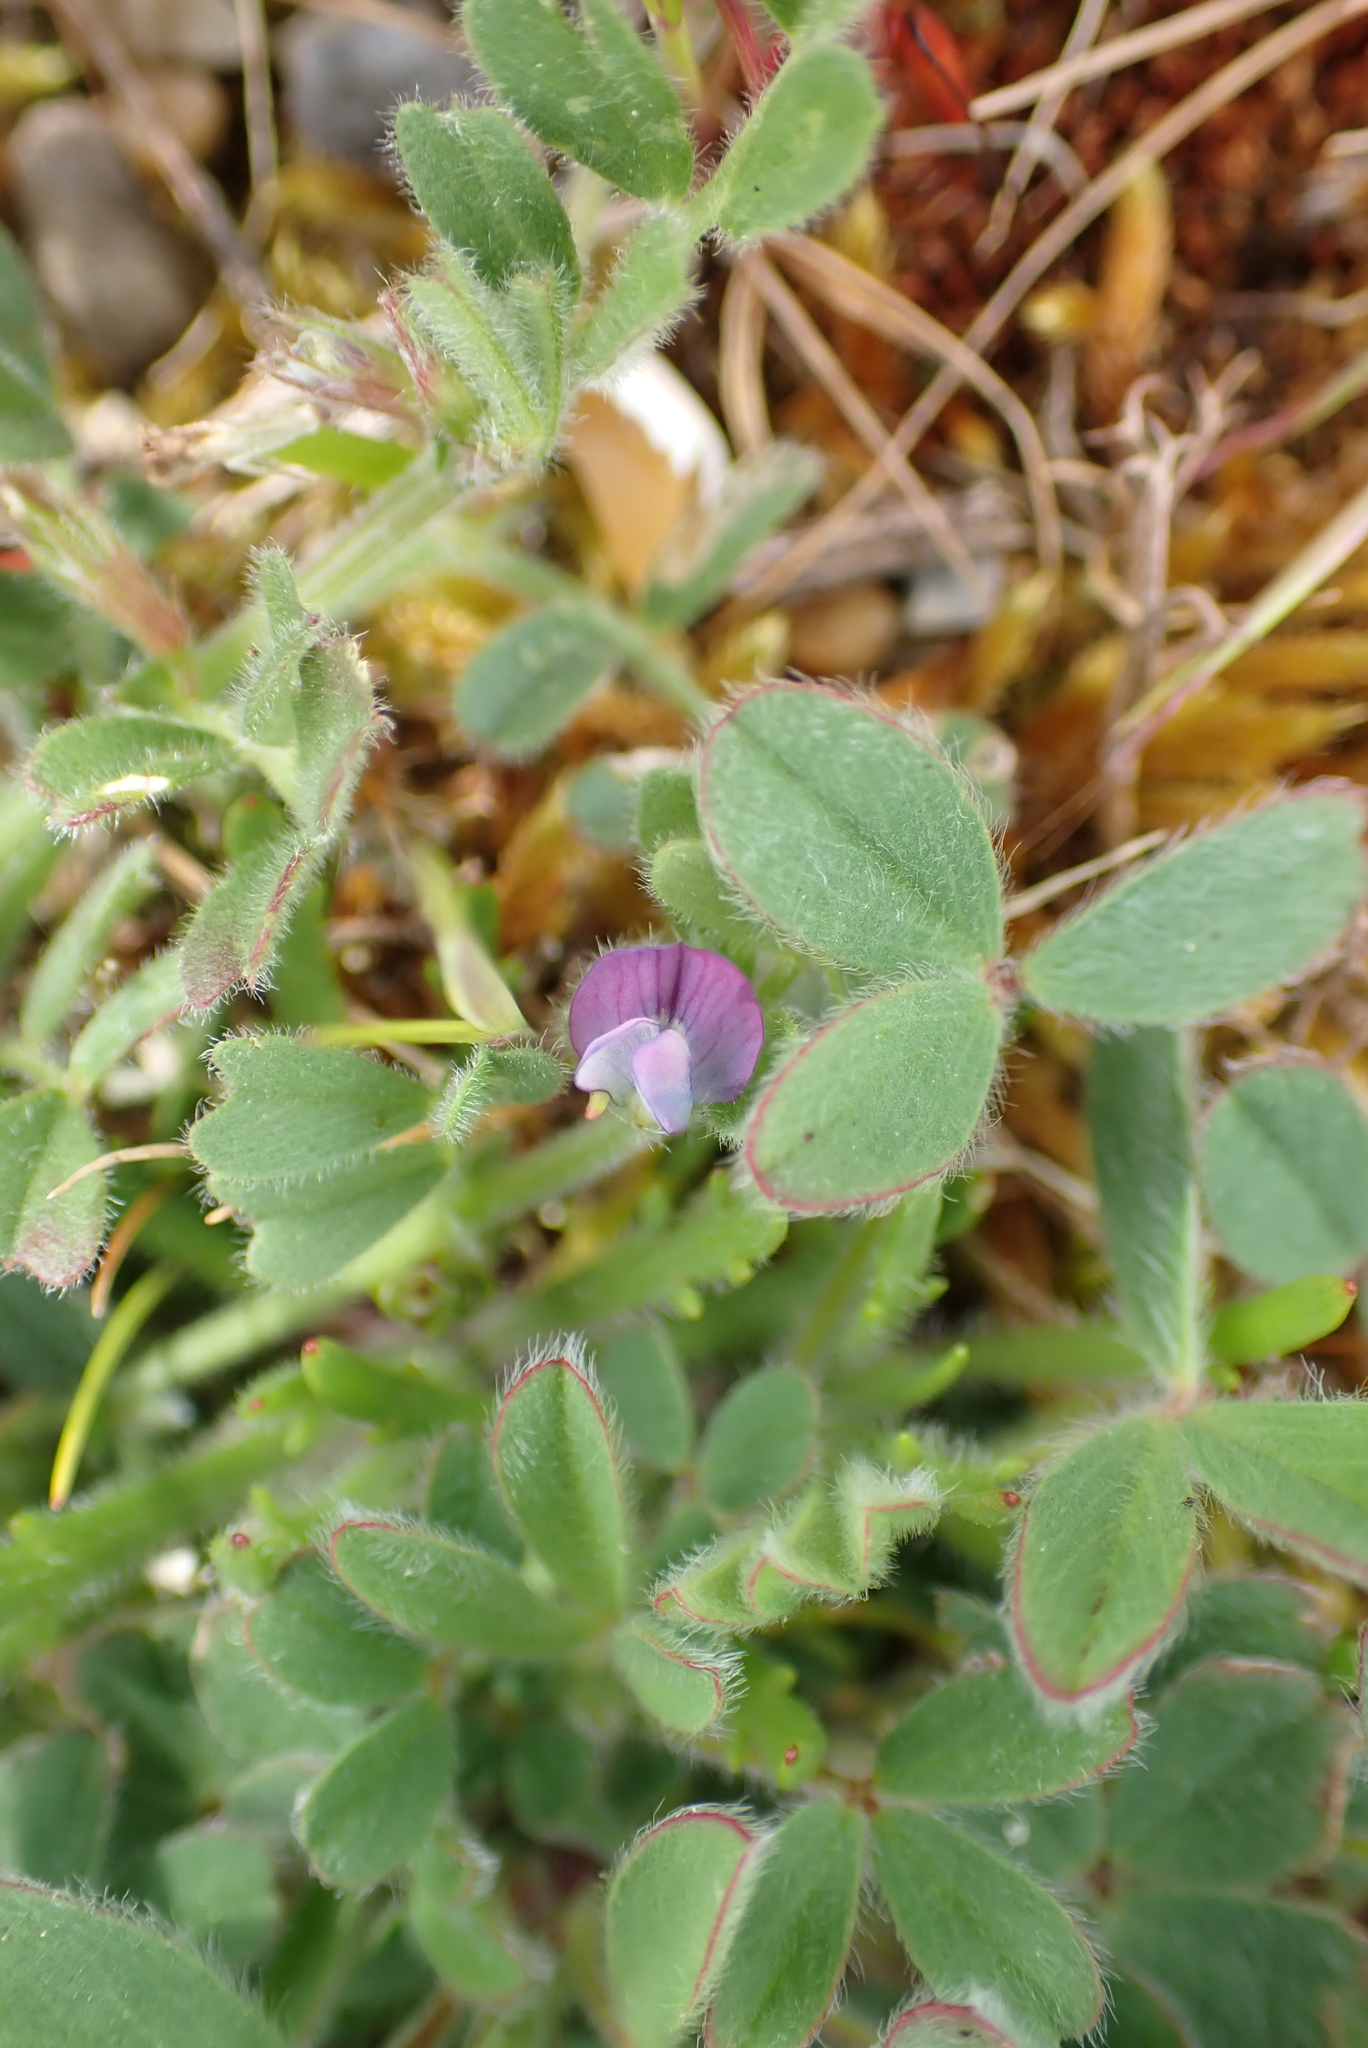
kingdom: Plantae
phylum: Tracheophyta
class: Magnoliopsida
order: Fabales
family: Fabaceae
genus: Vicia
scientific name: Vicia lathyroides
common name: Spring vetch
